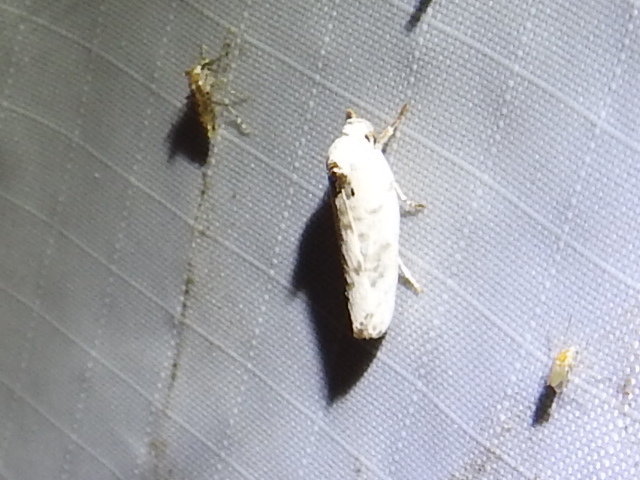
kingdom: Animalia
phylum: Arthropoda
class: Insecta
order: Lepidoptera
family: Depressariidae
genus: Antaeotricha
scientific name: Antaeotricha leucillana
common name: Pale gray bird-dropping moth
